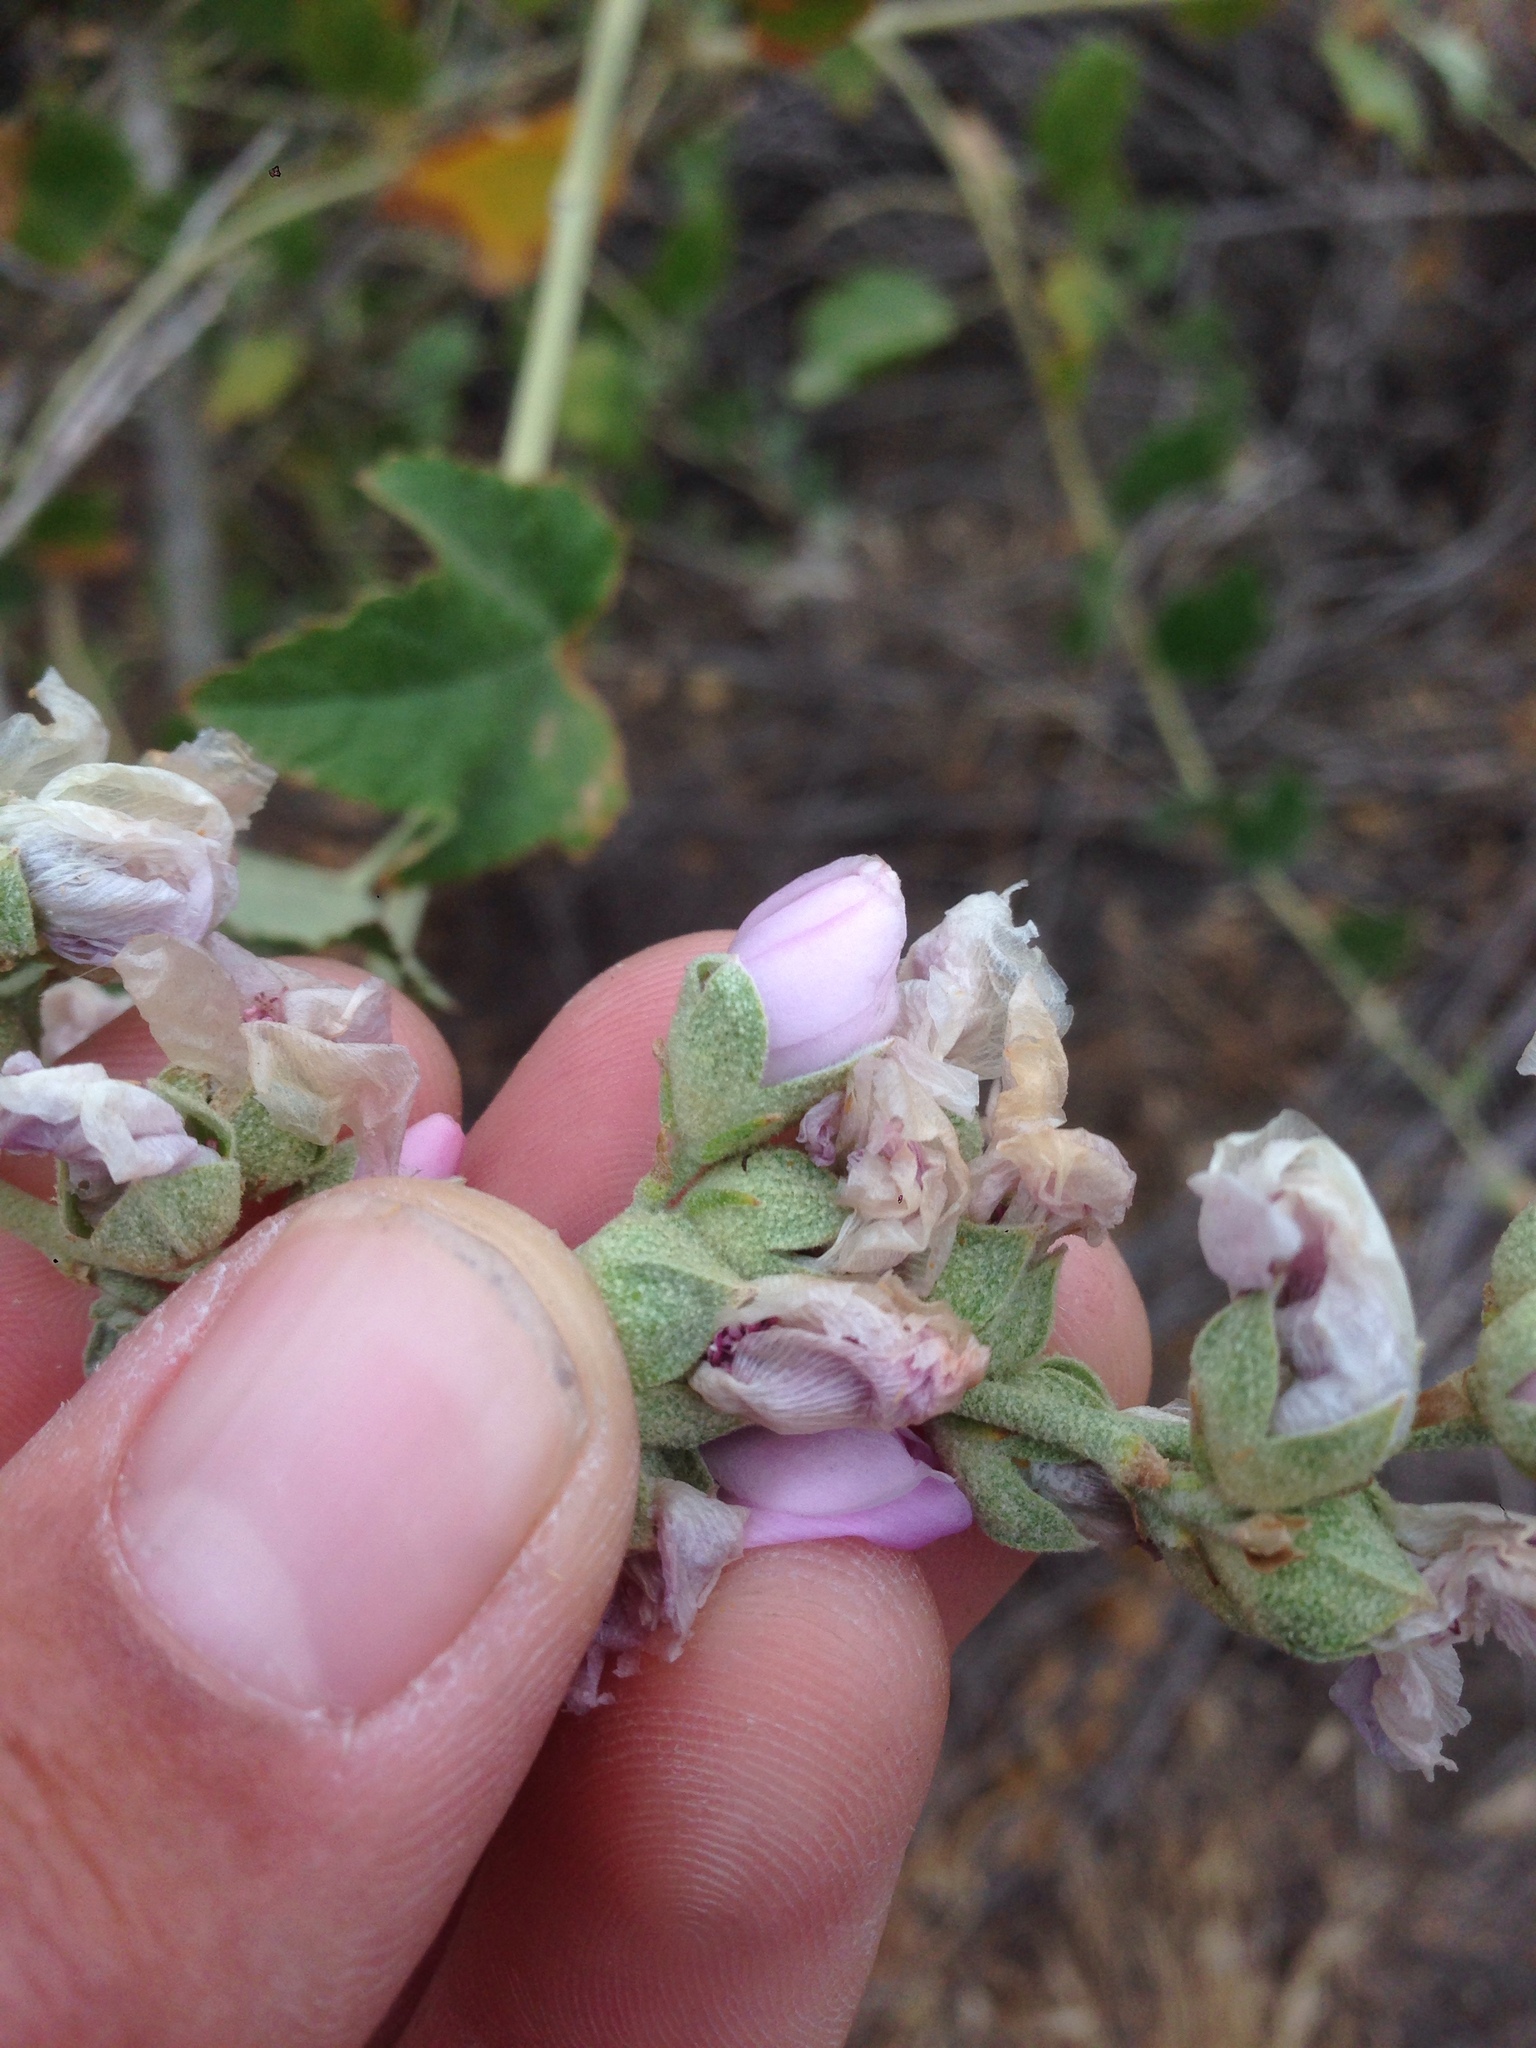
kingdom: Plantae
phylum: Tracheophyta
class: Magnoliopsida
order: Malvales
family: Malvaceae
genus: Malacothamnus
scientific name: Malacothamnus fasciculatus
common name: Sant cruz island bush-mallow
